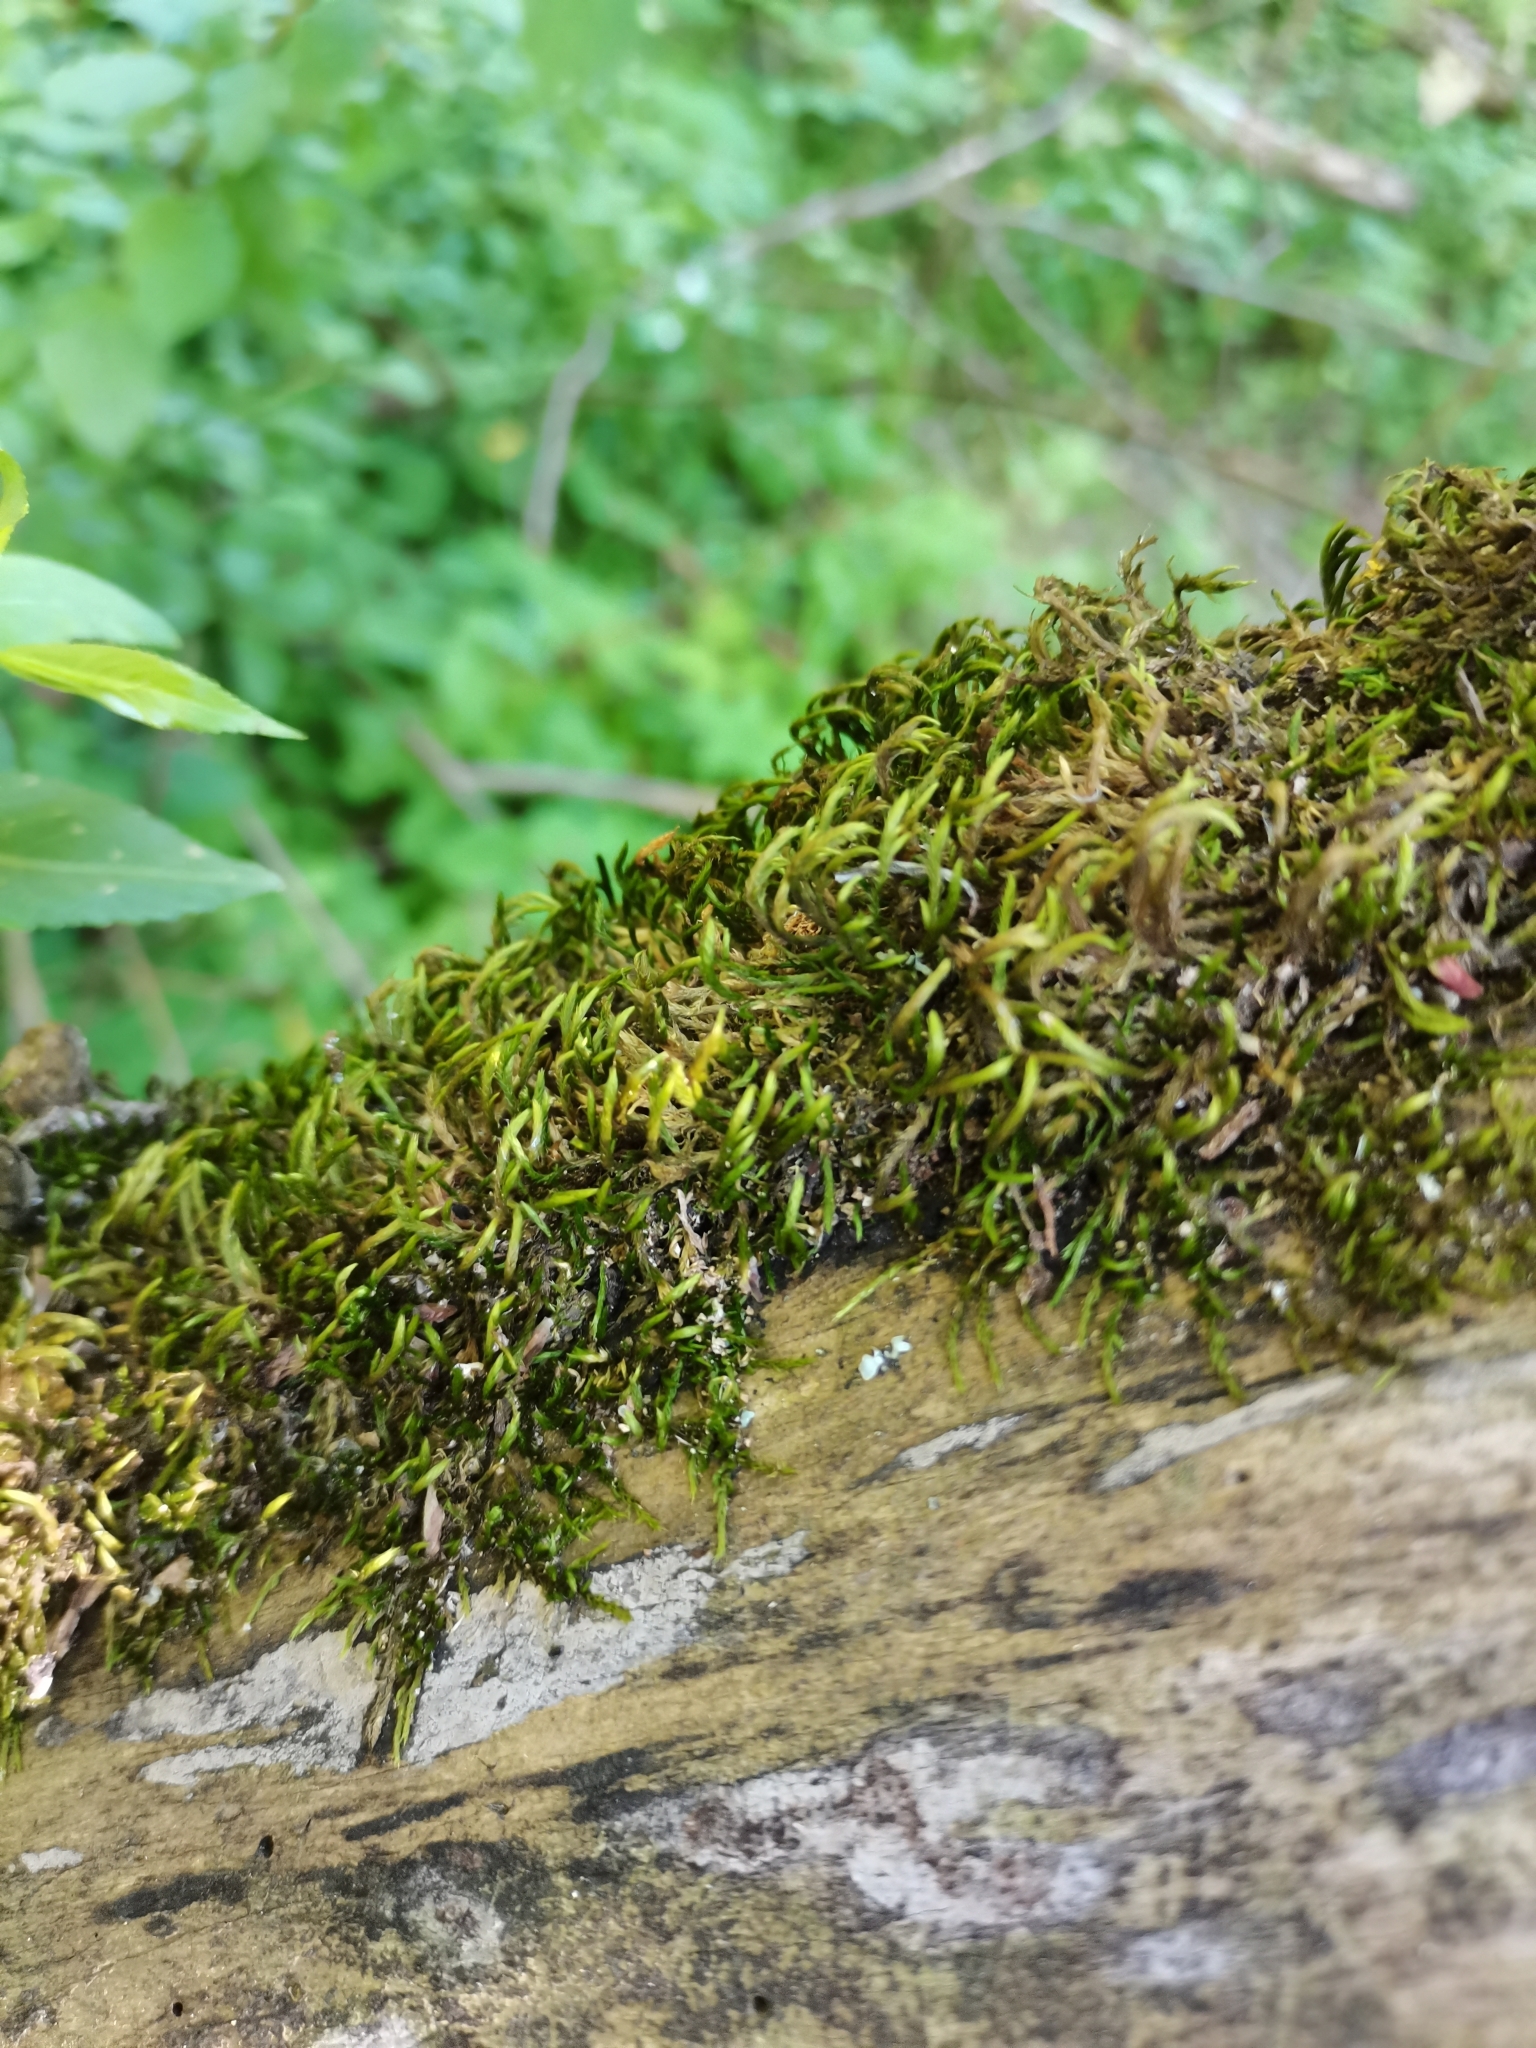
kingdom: Plantae
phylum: Bryophyta
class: Bryopsida
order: Hypnales
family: Leucodontaceae
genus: Leucodon
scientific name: Leucodon sciuroides
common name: Squirrel-tail moss
